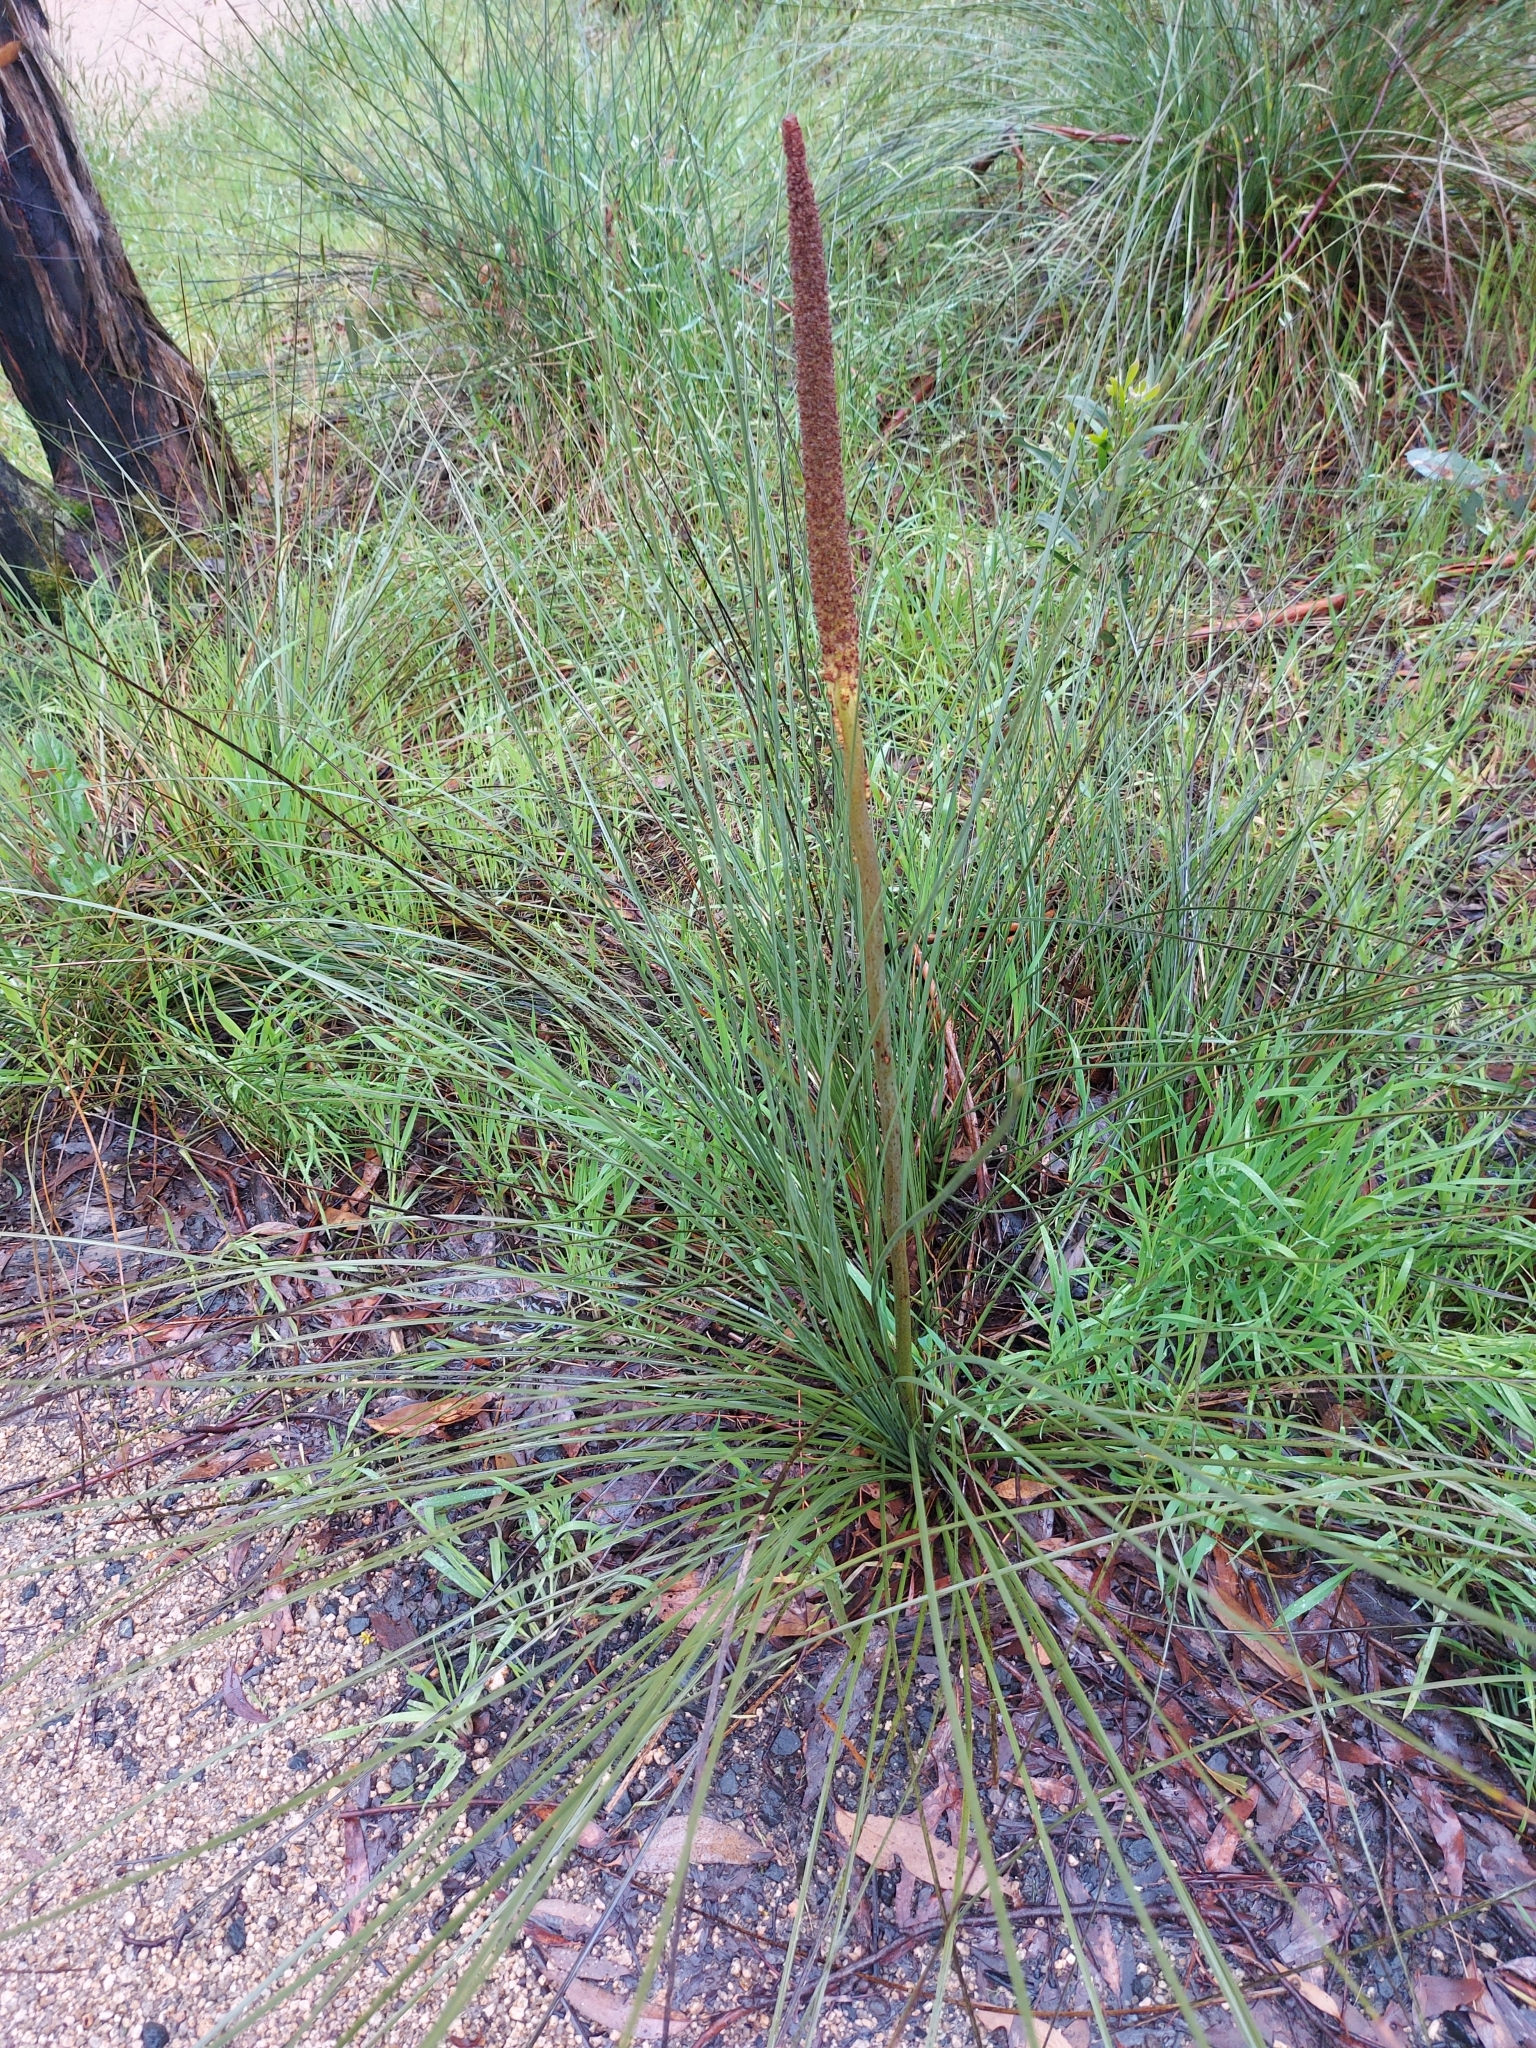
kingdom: Plantae
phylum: Tracheophyta
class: Liliopsida
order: Asparagales
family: Asphodelaceae
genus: Xanthorrhoea
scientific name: Xanthorrhoea minor
